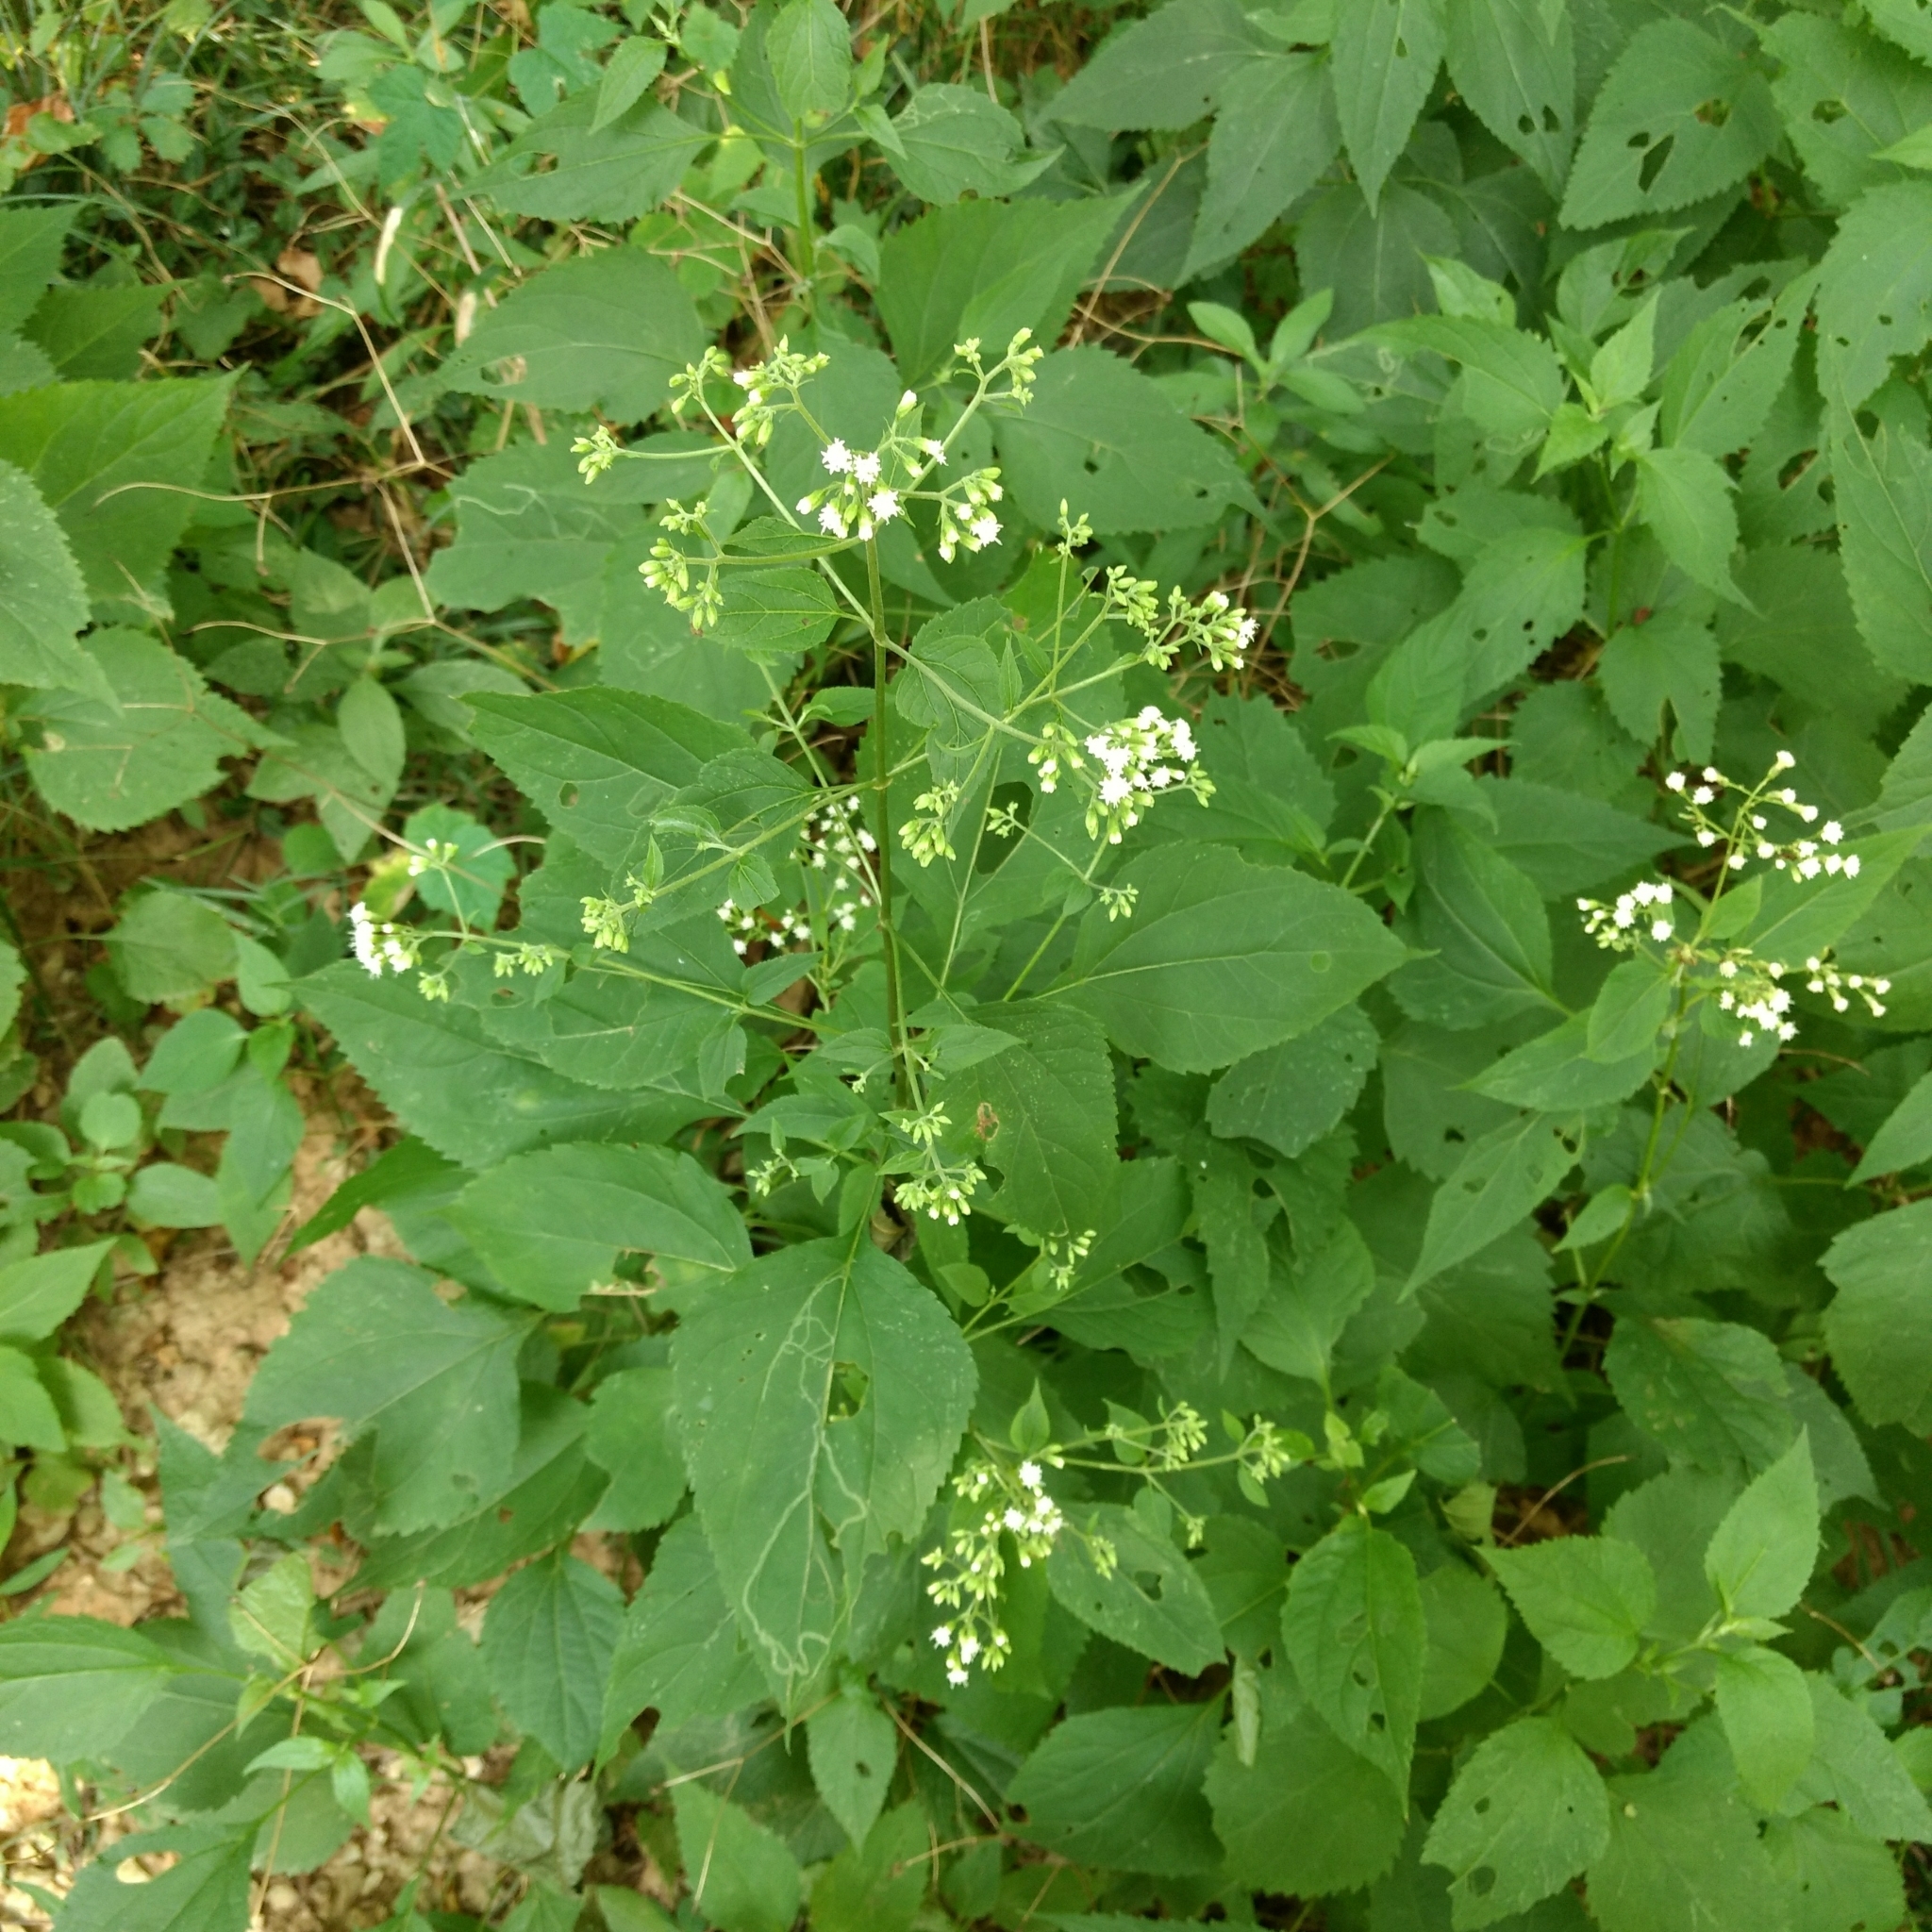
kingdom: Plantae
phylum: Tracheophyta
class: Magnoliopsida
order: Asterales
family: Asteraceae
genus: Ageratina
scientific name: Ageratina altissima
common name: White snakeroot
